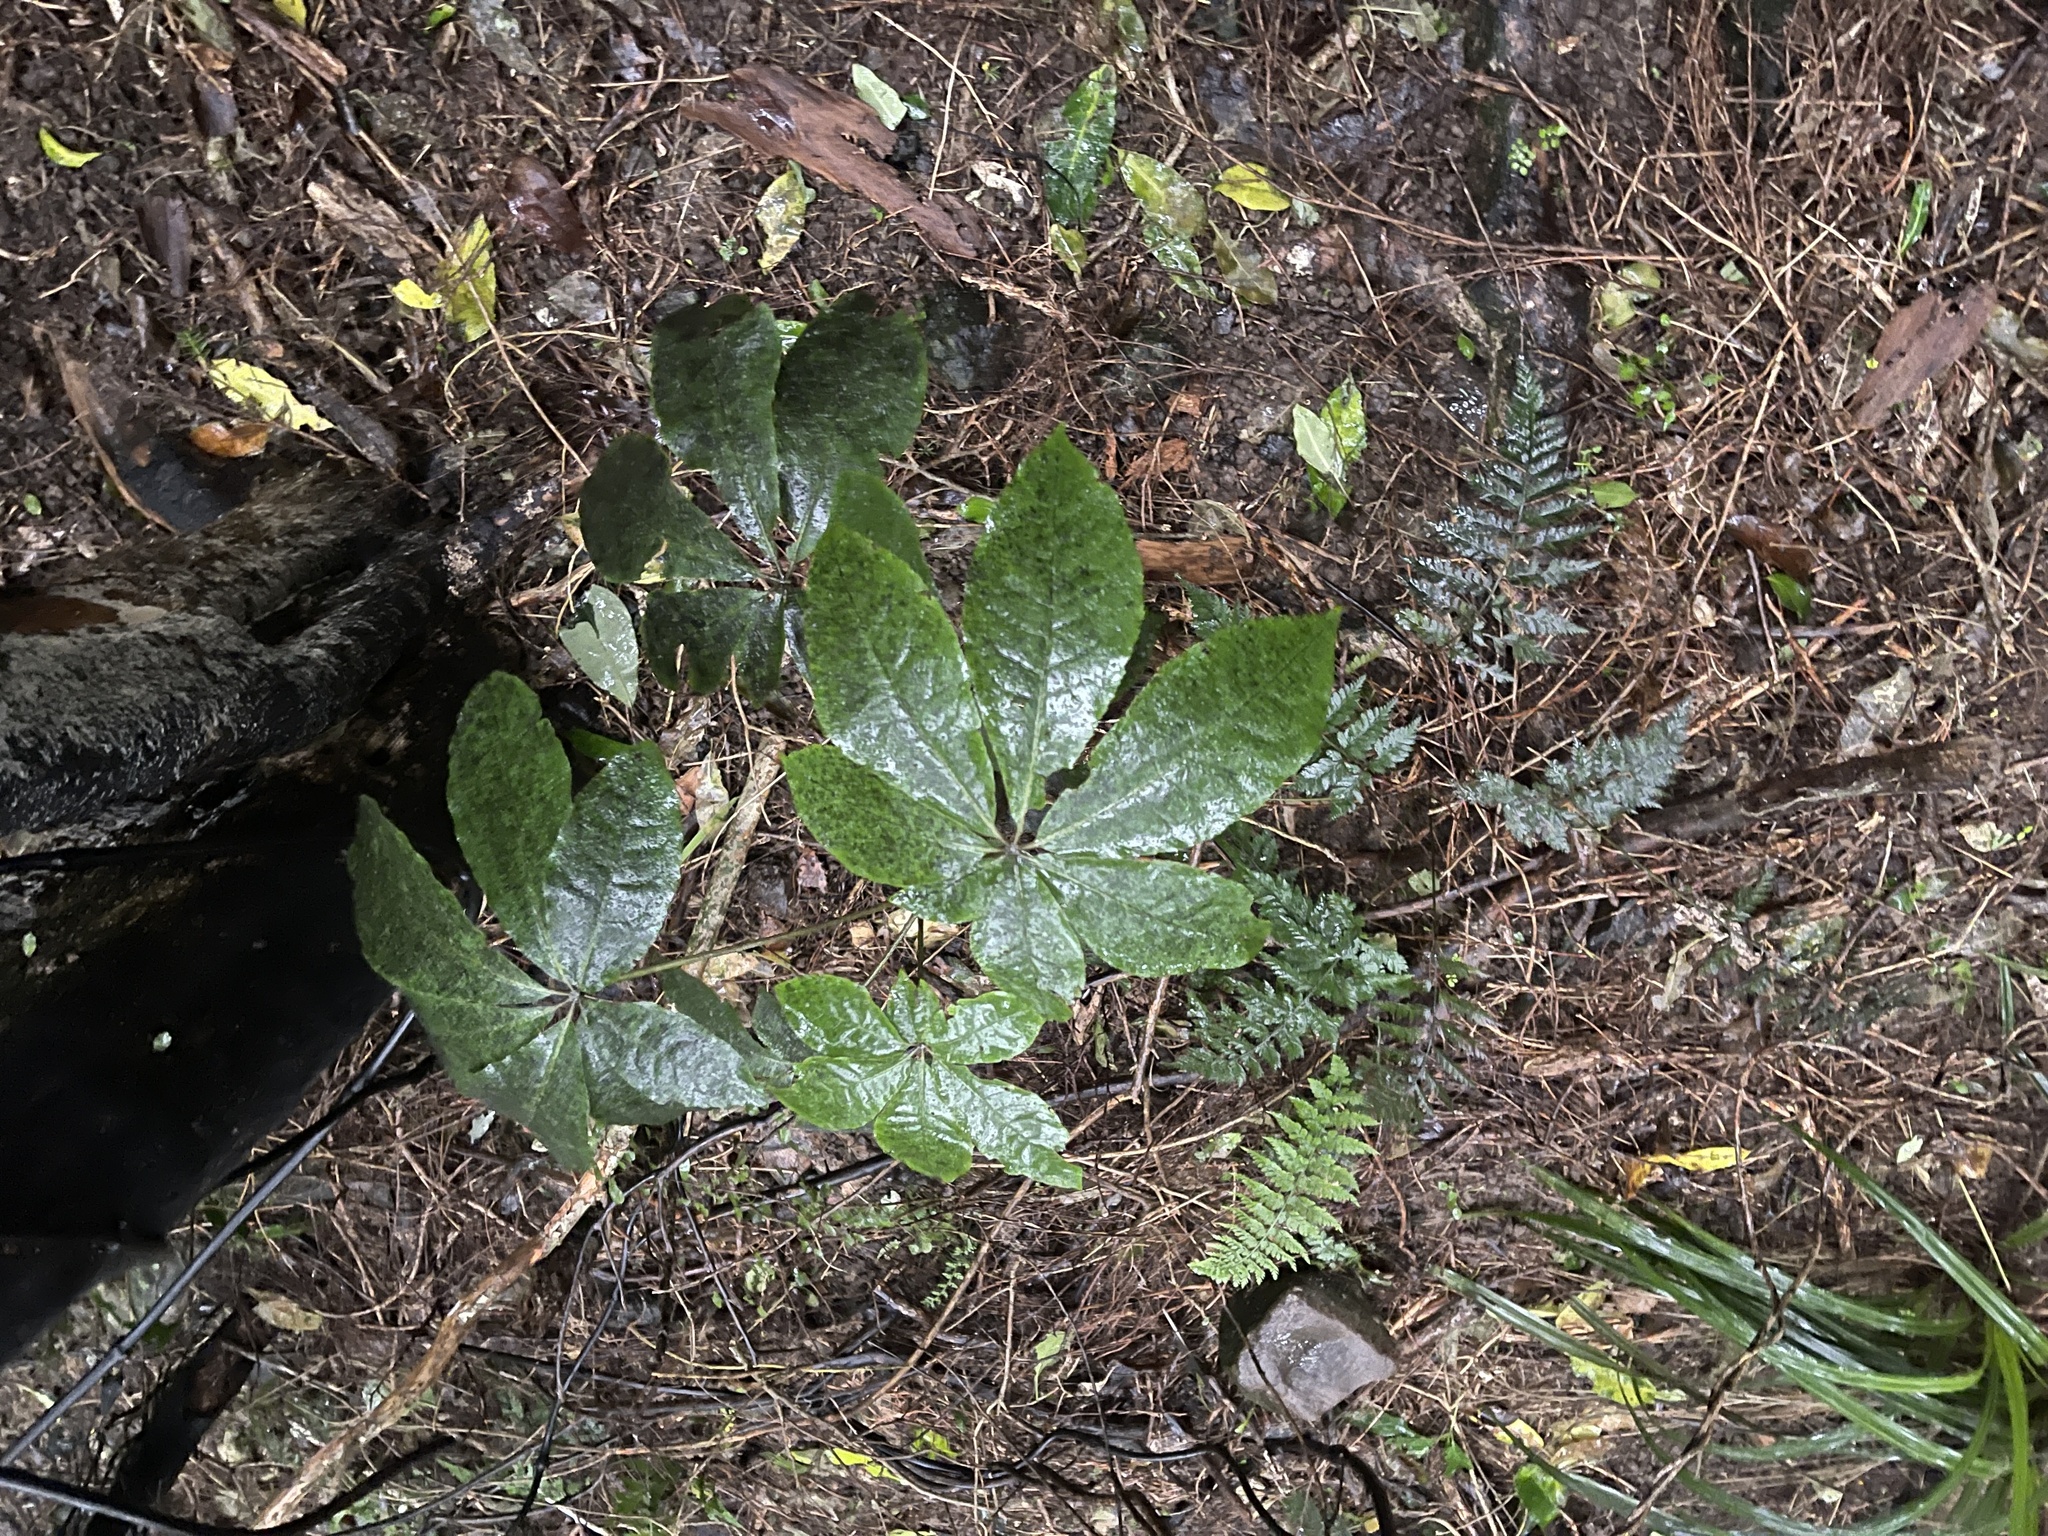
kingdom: Plantae
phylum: Tracheophyta
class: Magnoliopsida
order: Apiales
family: Araliaceae
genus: Schefflera
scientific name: Schefflera digitata
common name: Pate
